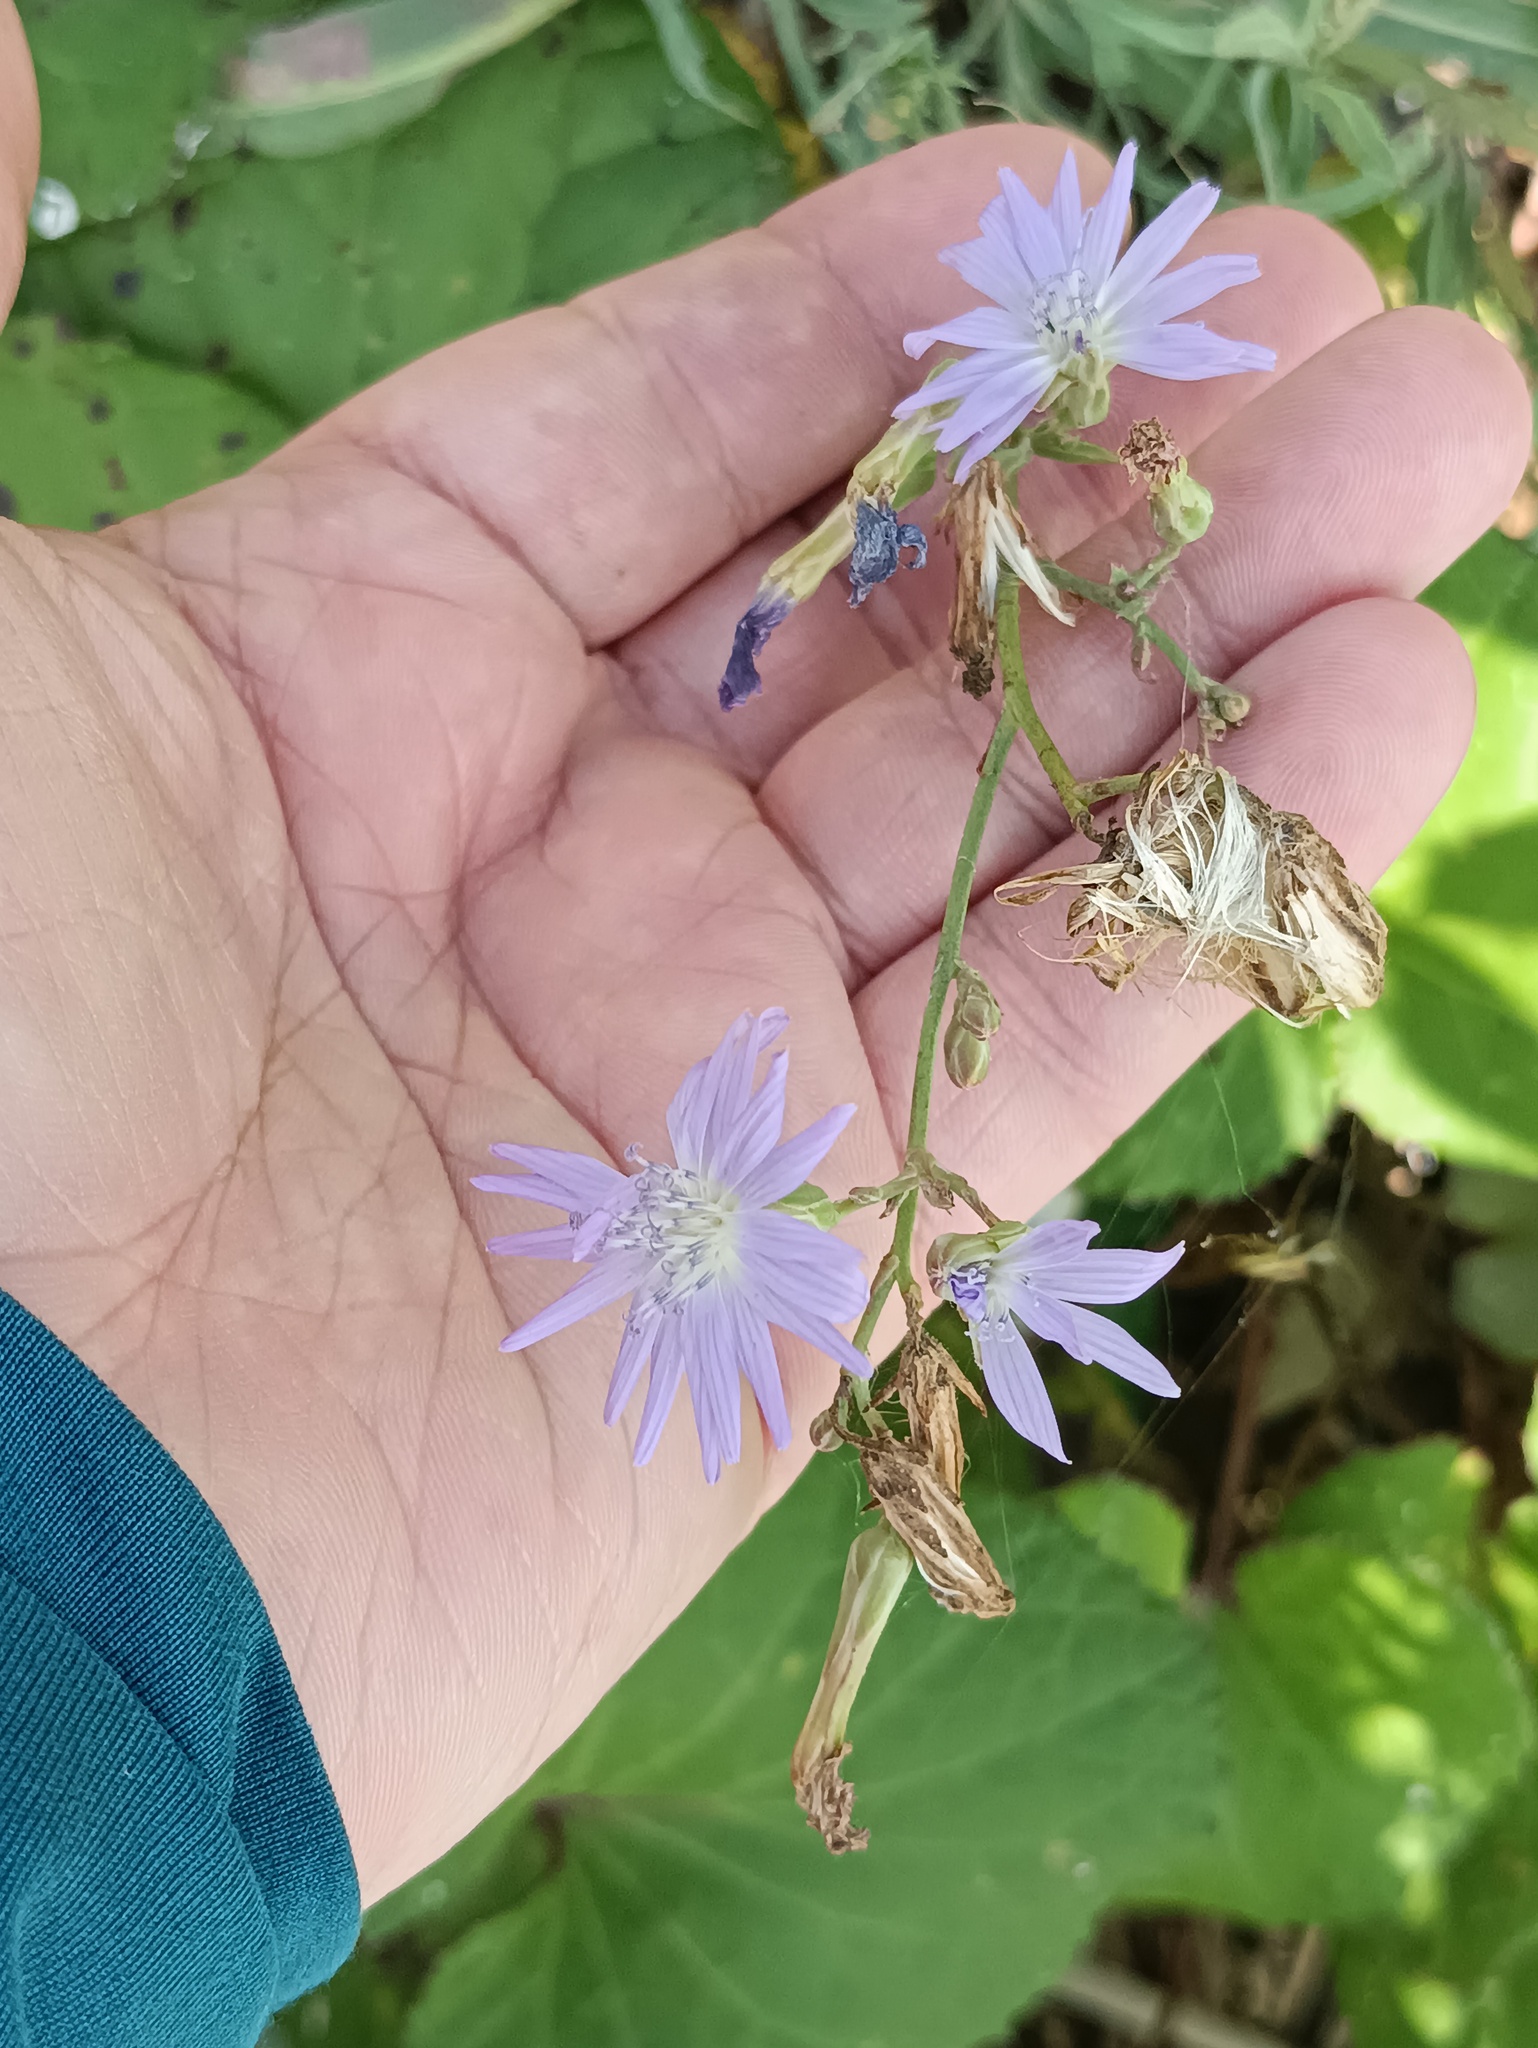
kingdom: Plantae
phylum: Tracheophyta
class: Magnoliopsida
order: Asterales
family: Asteraceae
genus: Lactuca
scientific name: Lactuca tatarica
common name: Blue lettuce
